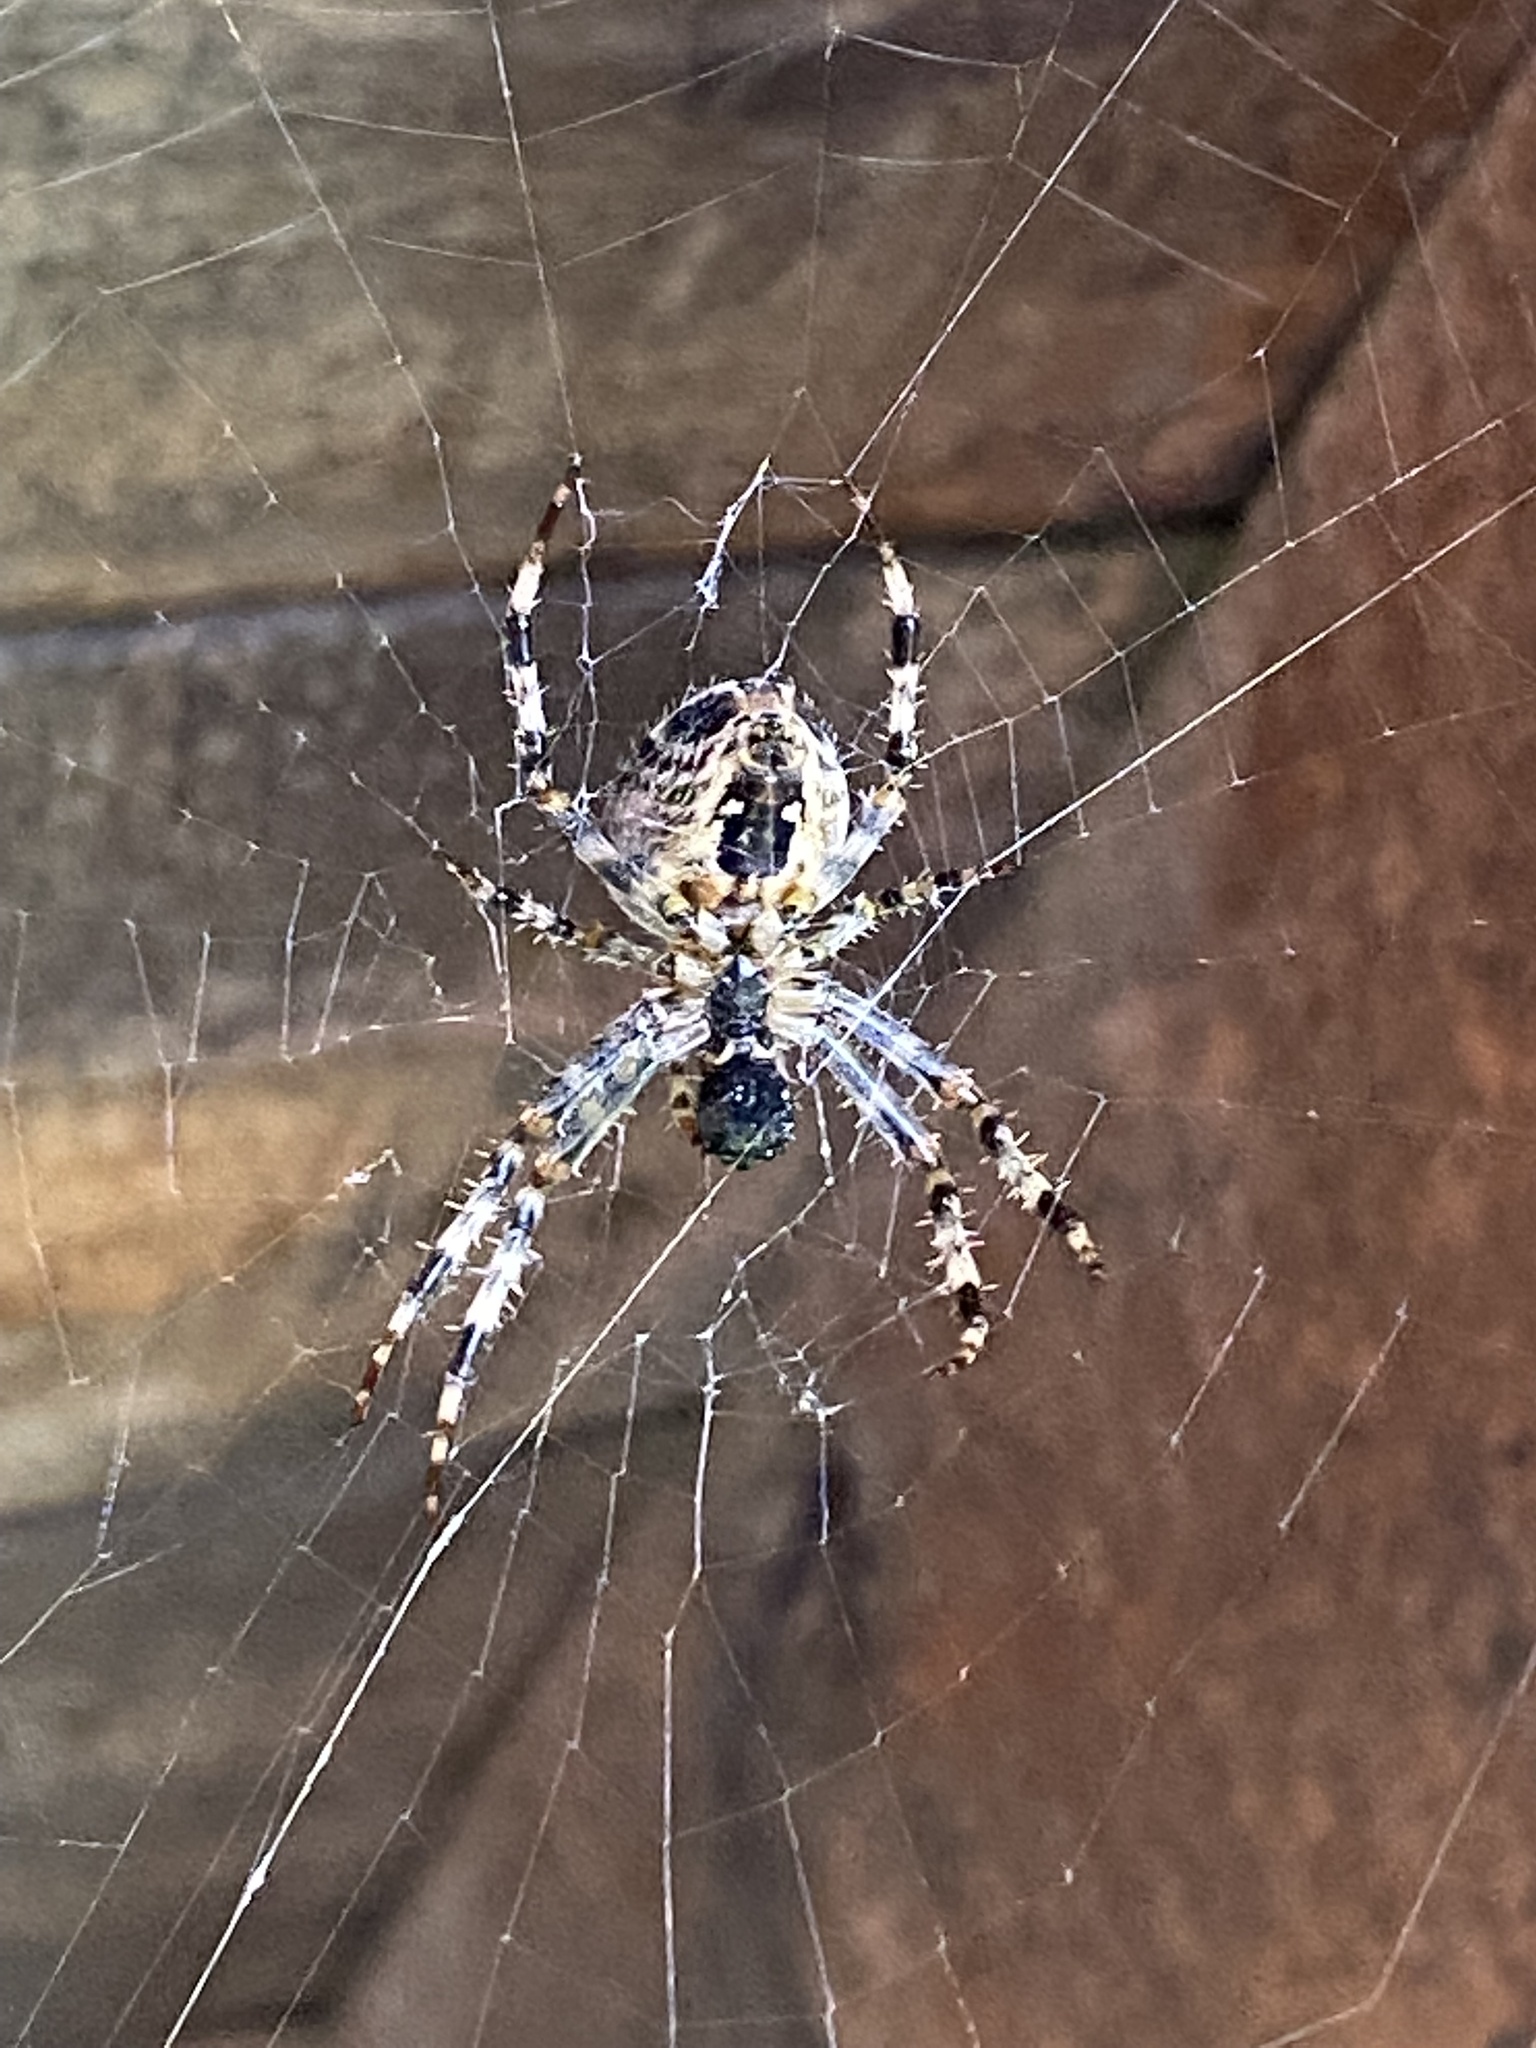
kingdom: Animalia
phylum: Arthropoda
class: Arachnida
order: Araneae
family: Araneidae
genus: Araneus
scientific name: Araneus diadematus
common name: Cross orbweaver
